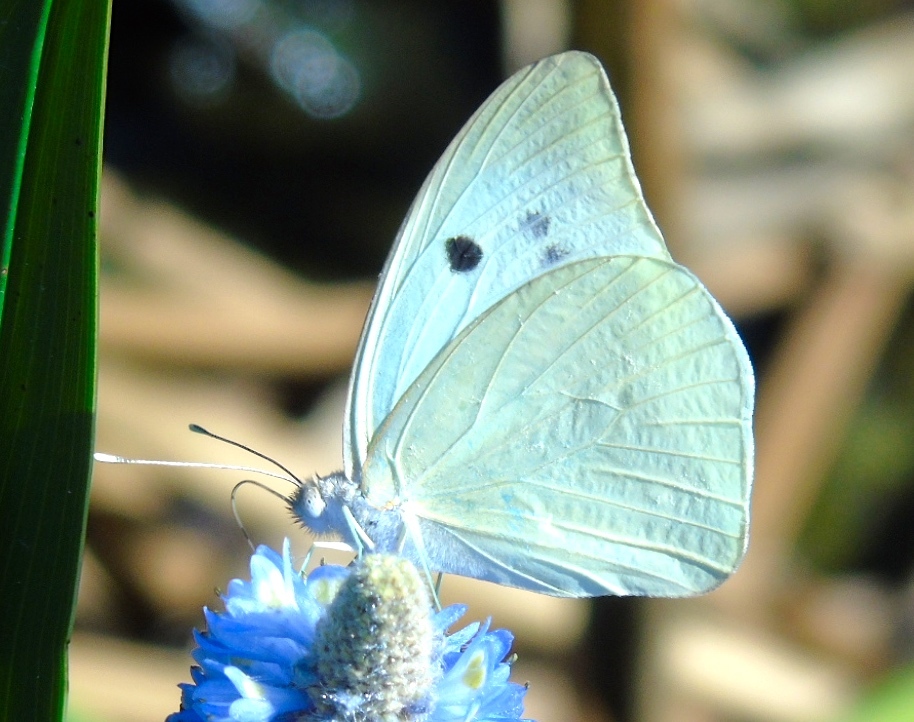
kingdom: Animalia
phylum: Arthropoda
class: Insecta
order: Lepidoptera
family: Pieridae
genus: Ganyra
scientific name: Ganyra josephina
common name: Giant white
